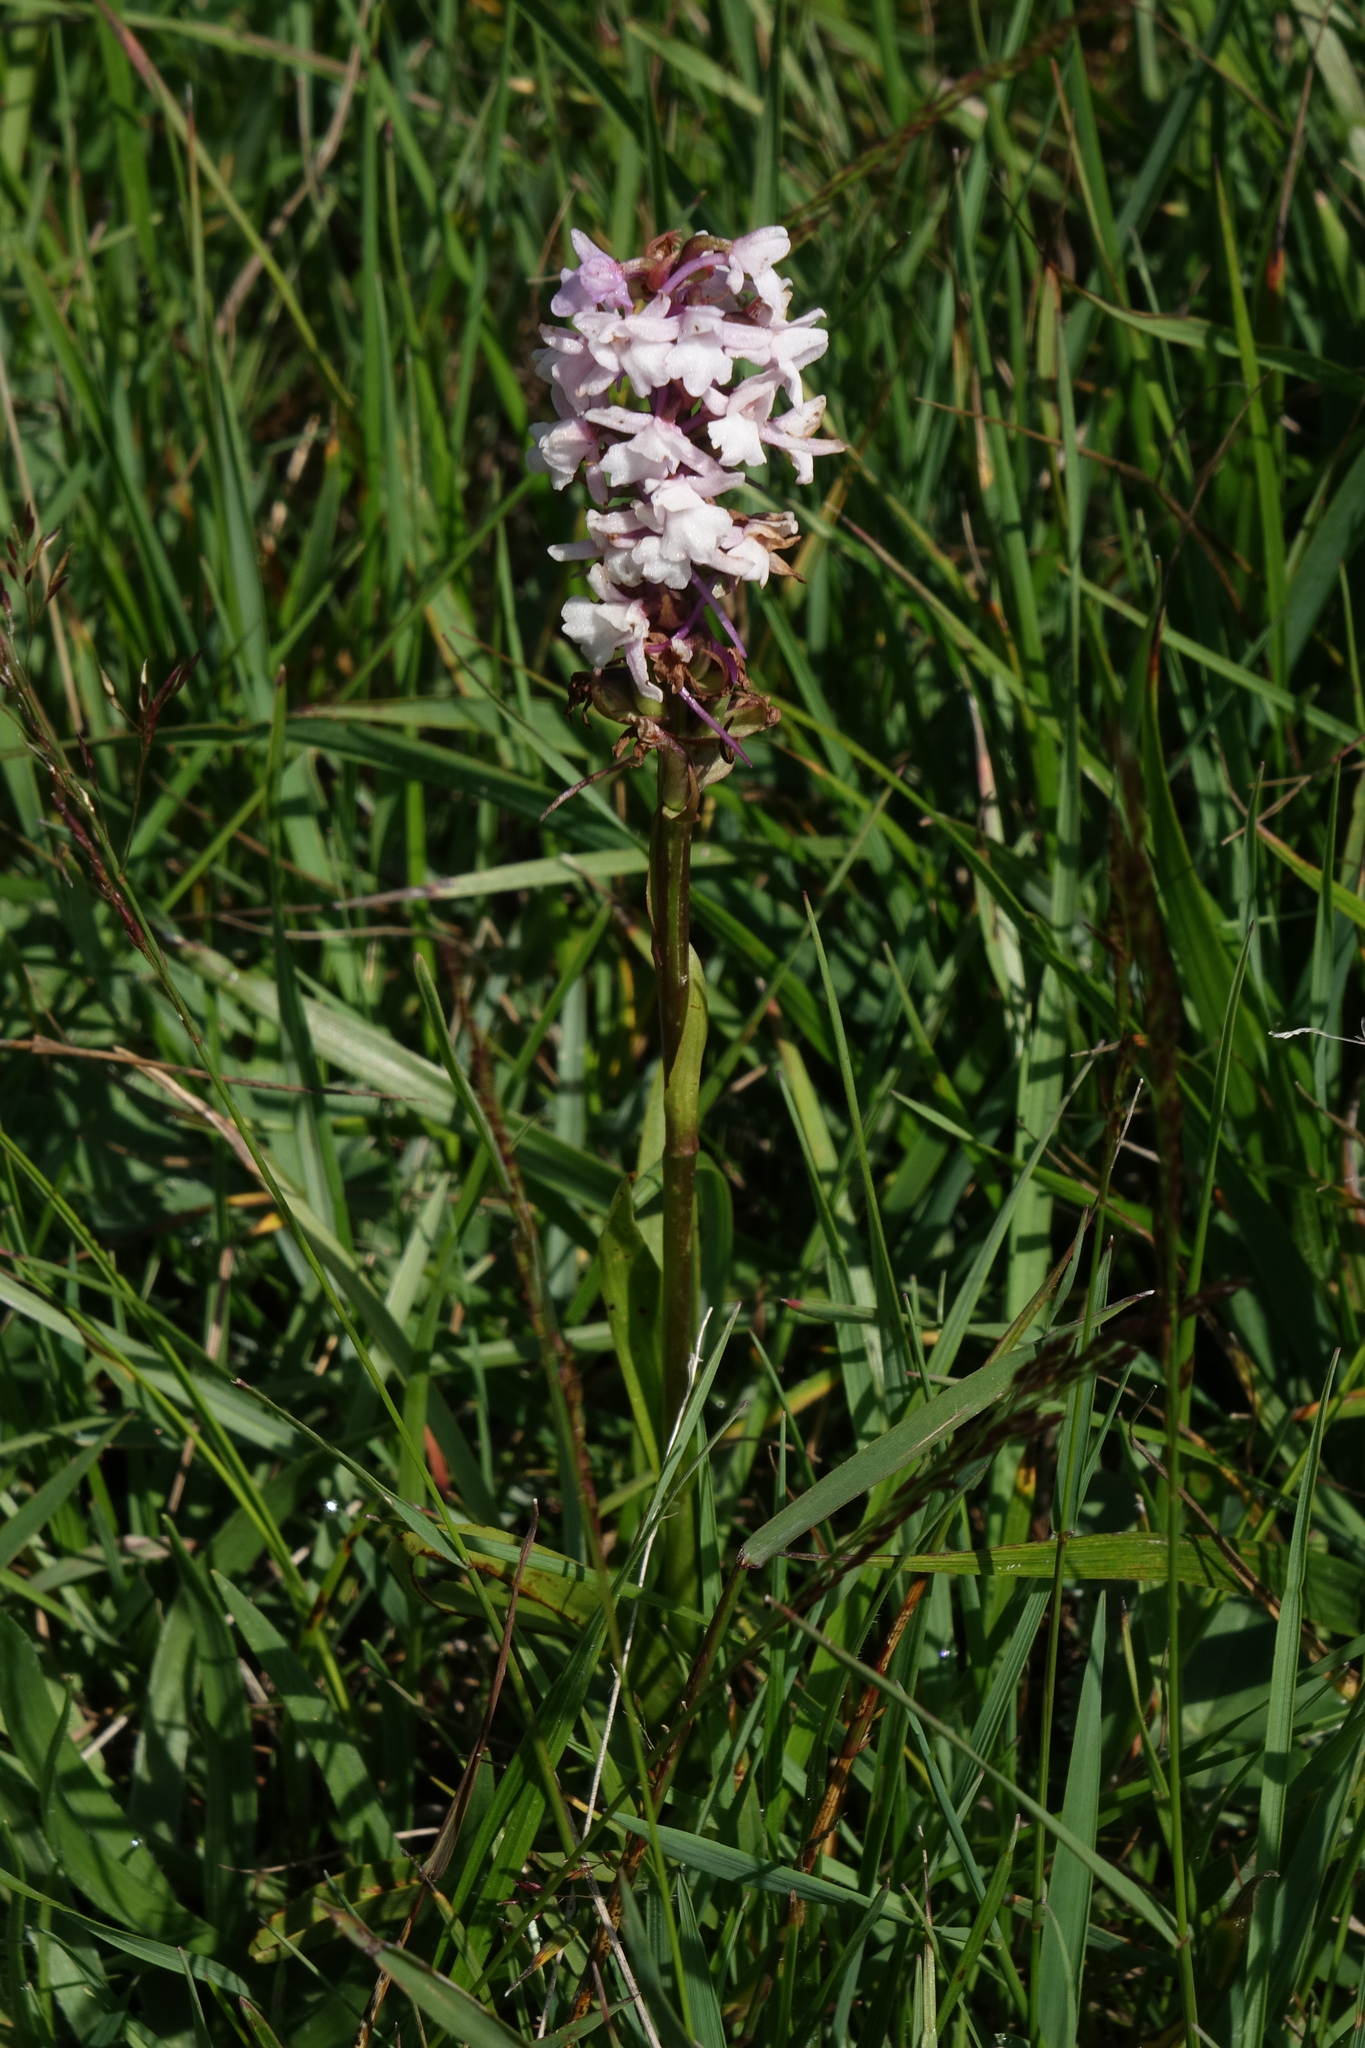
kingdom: Plantae
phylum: Tracheophyta
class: Liliopsida
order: Asparagales
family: Orchidaceae
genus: Gymnadenia
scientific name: Gymnadenia conopsea
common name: Fragrant orchid
